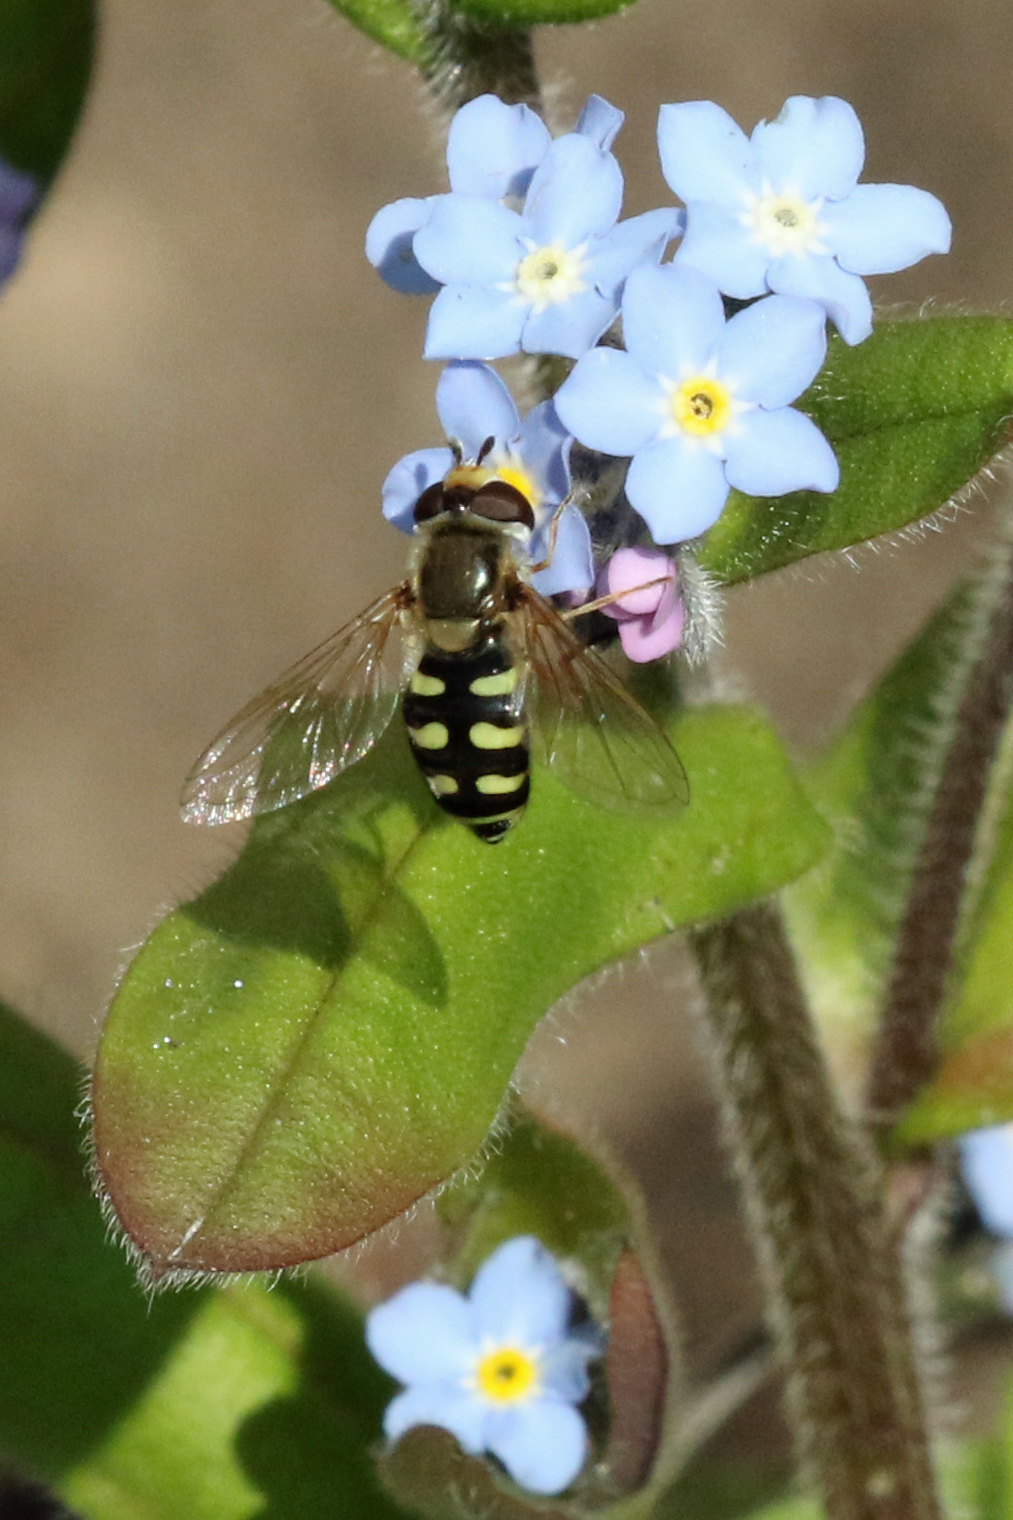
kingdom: Animalia
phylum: Arthropoda
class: Insecta
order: Diptera
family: Syrphidae
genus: Eupeodes
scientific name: Eupeodes corollae
